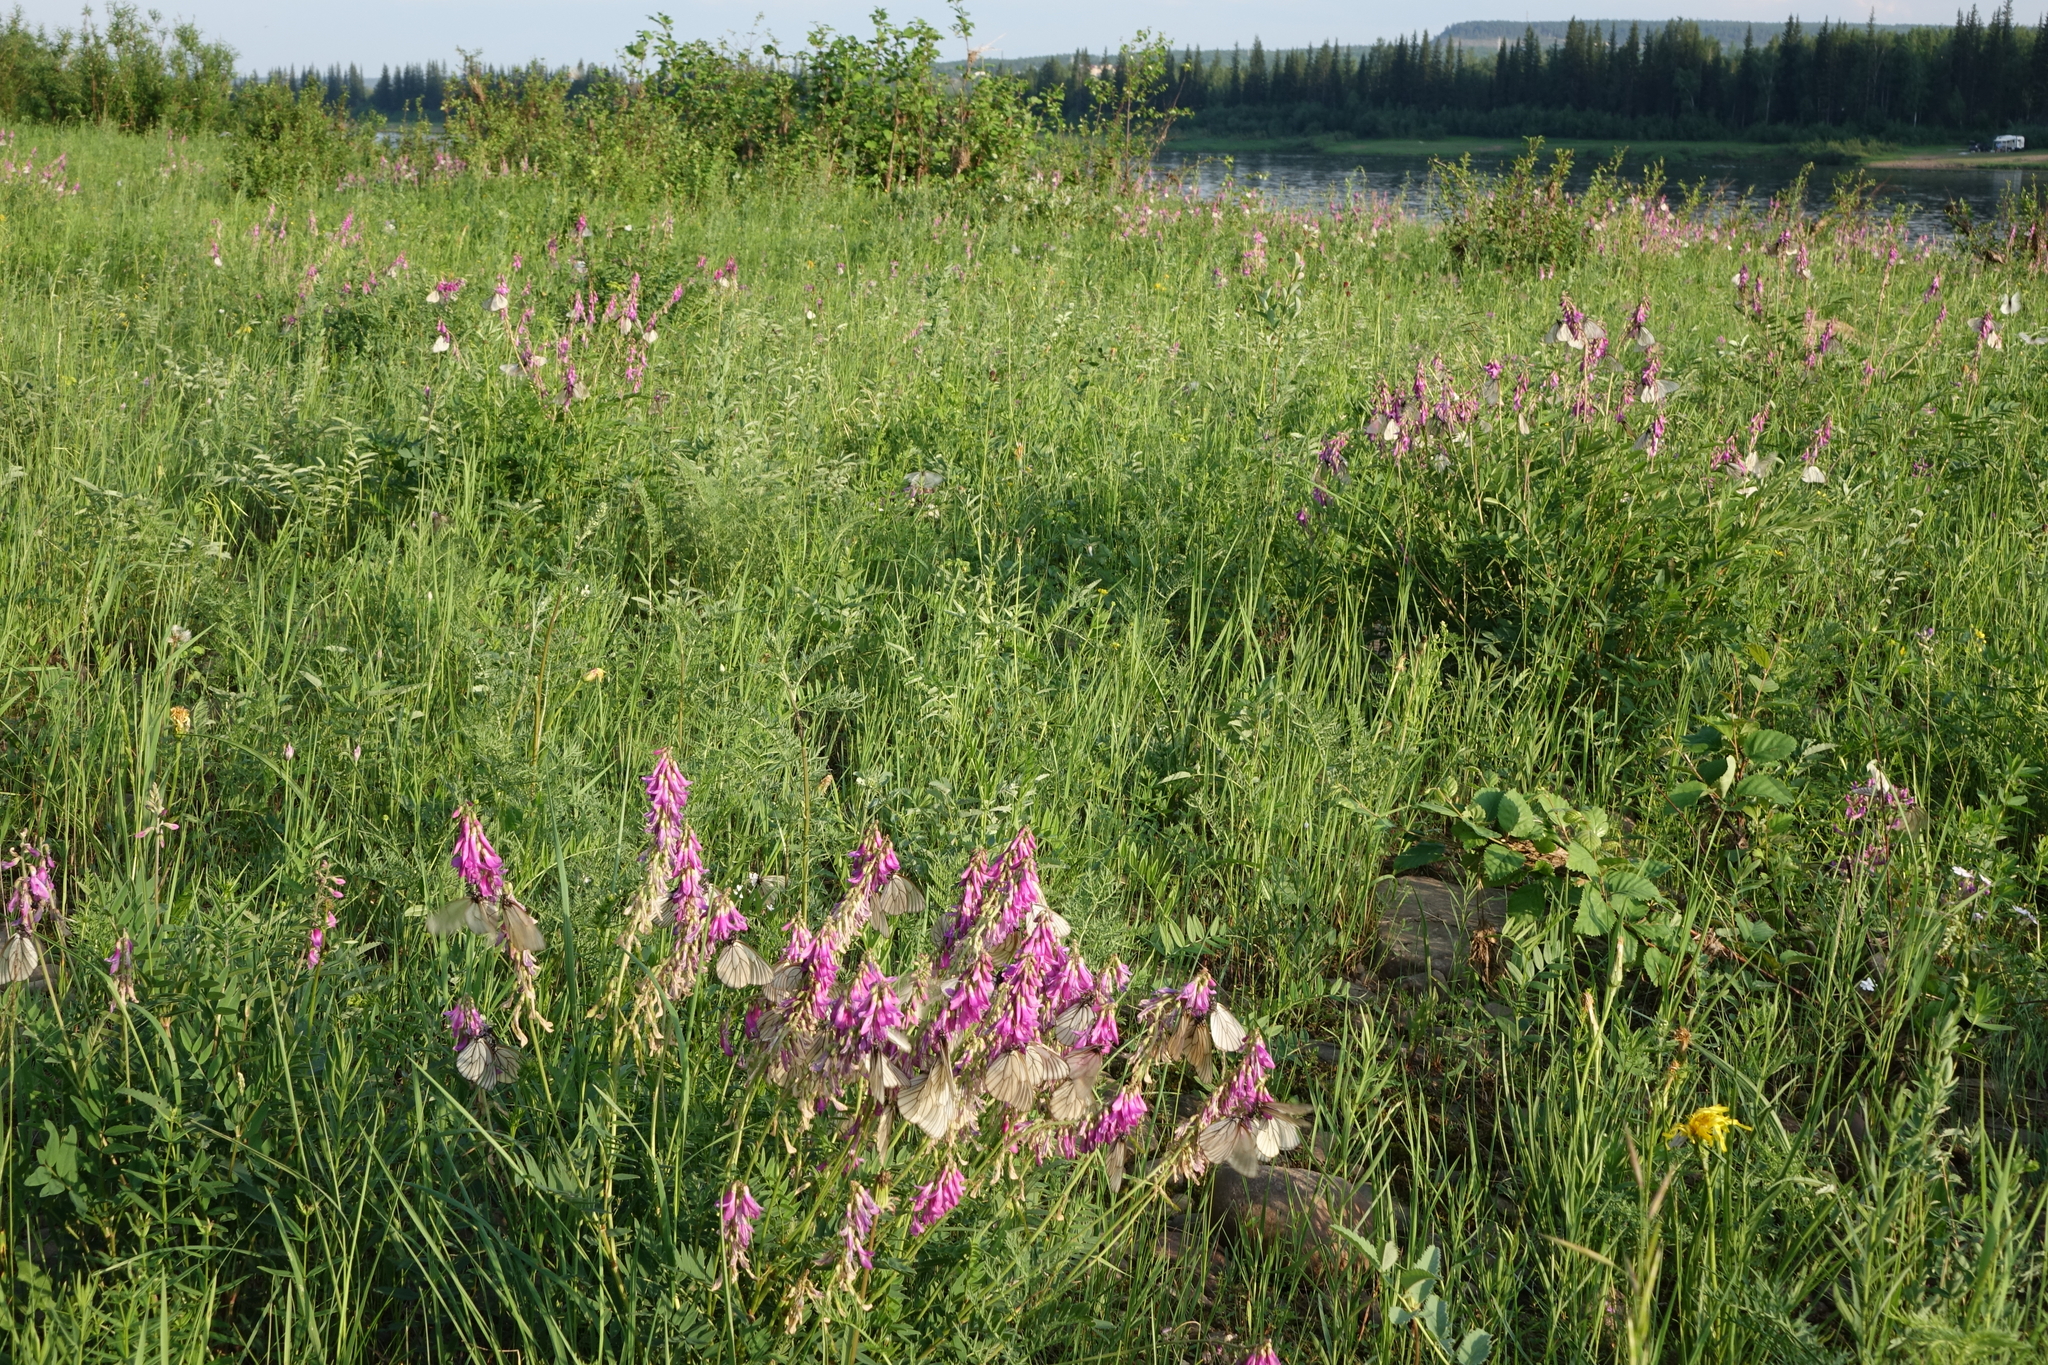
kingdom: Animalia
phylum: Arthropoda
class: Insecta
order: Lepidoptera
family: Pieridae
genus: Aporia
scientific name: Aporia crataegi
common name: Black-veined white
